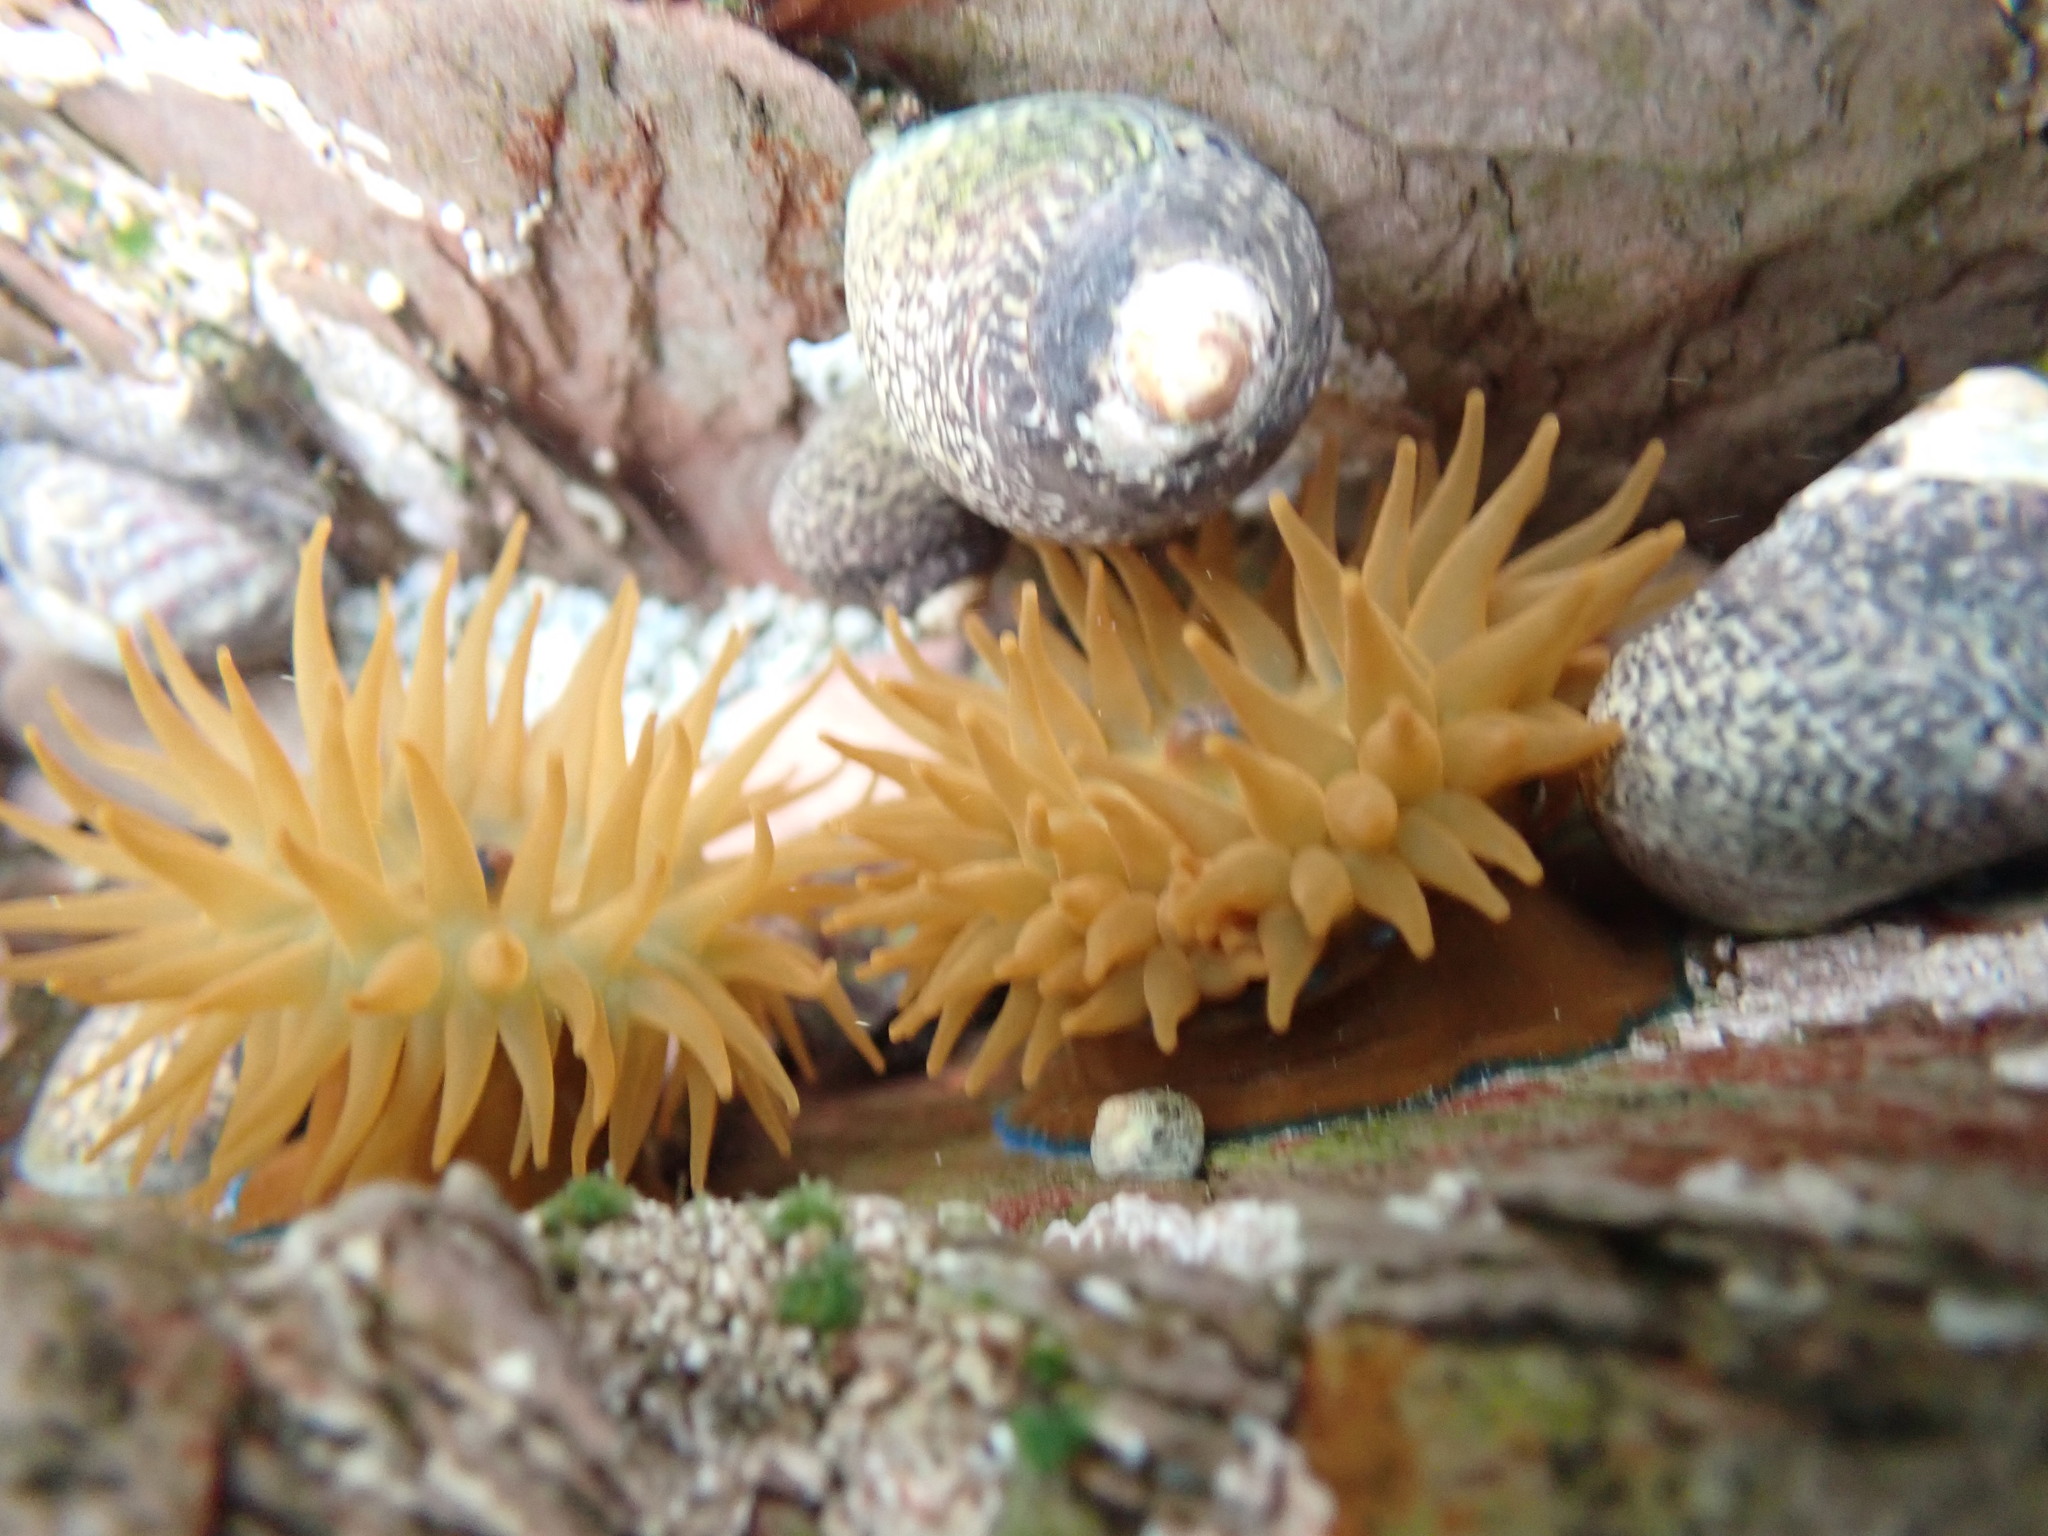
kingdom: Animalia
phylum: Cnidaria
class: Anthozoa
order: Actiniaria
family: Actiniidae
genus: Actinia
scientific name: Actinia equina
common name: Beadlet anemone
